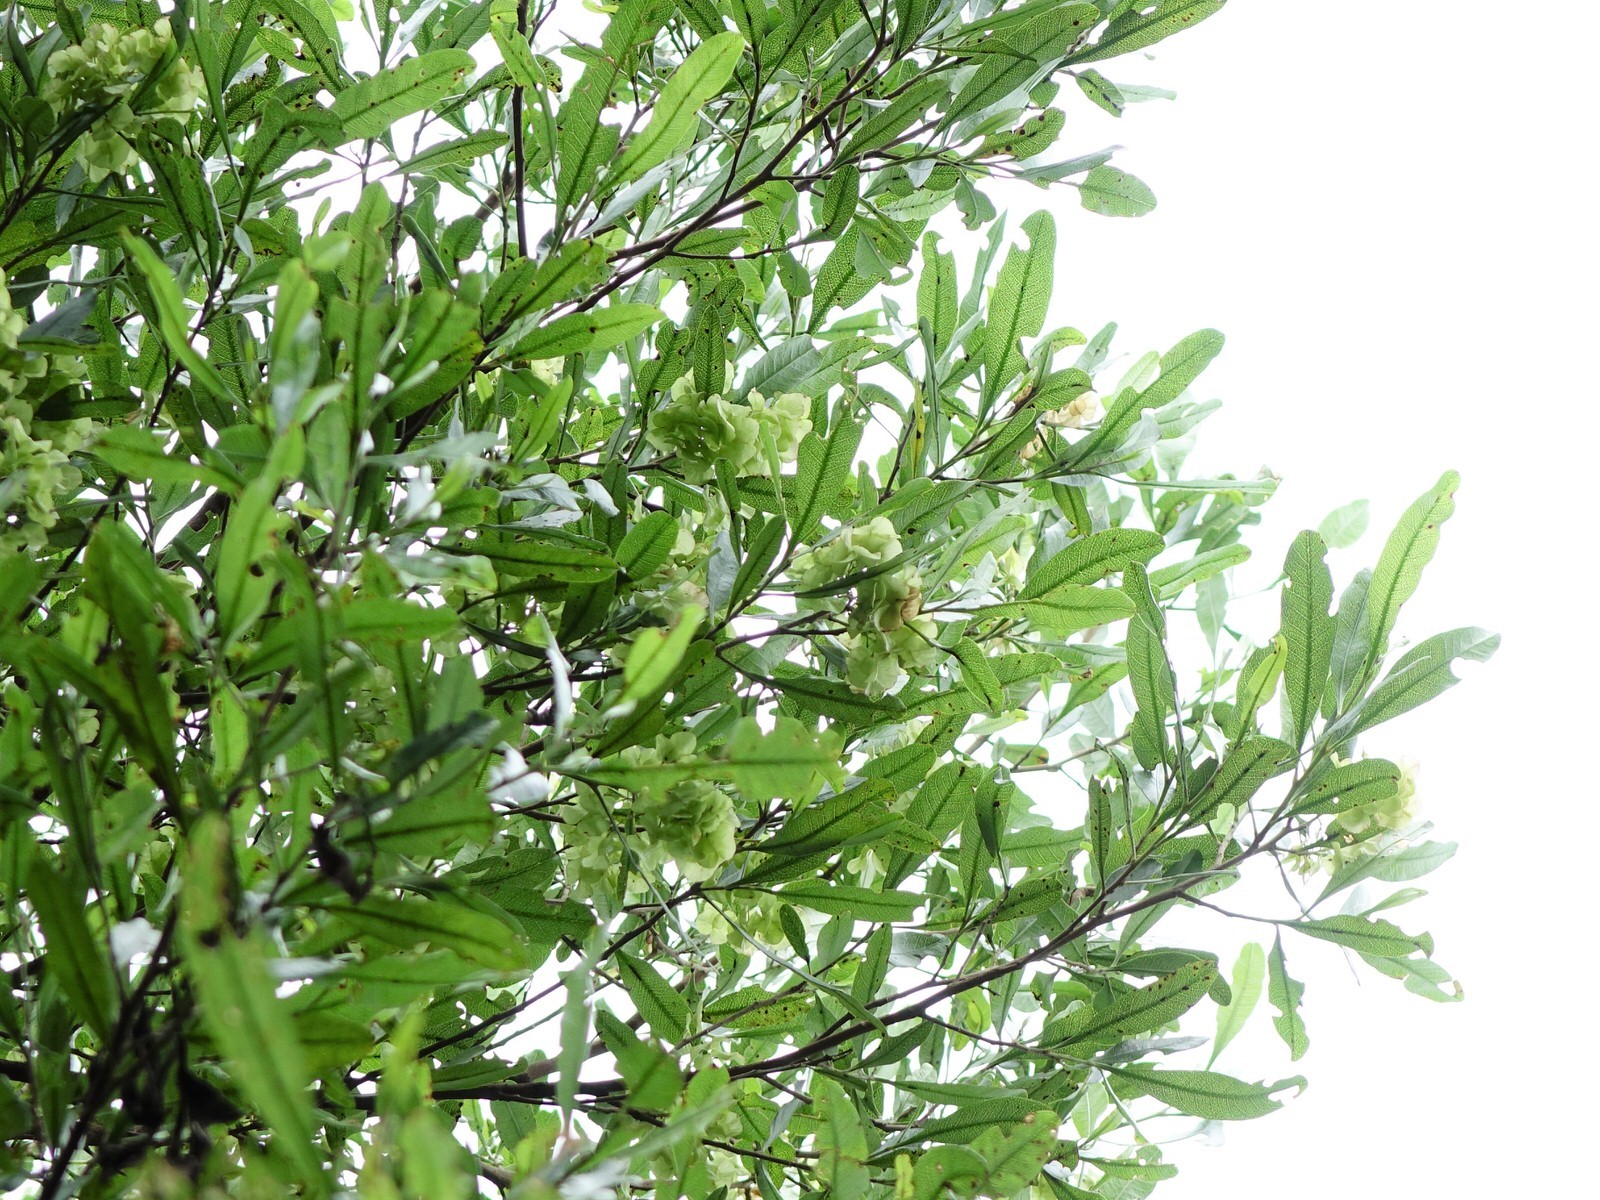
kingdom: Plantae
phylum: Tracheophyta
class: Magnoliopsida
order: Sapindales
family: Sapindaceae
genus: Dodonaea
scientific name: Dodonaea viscosa
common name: Hopbush
